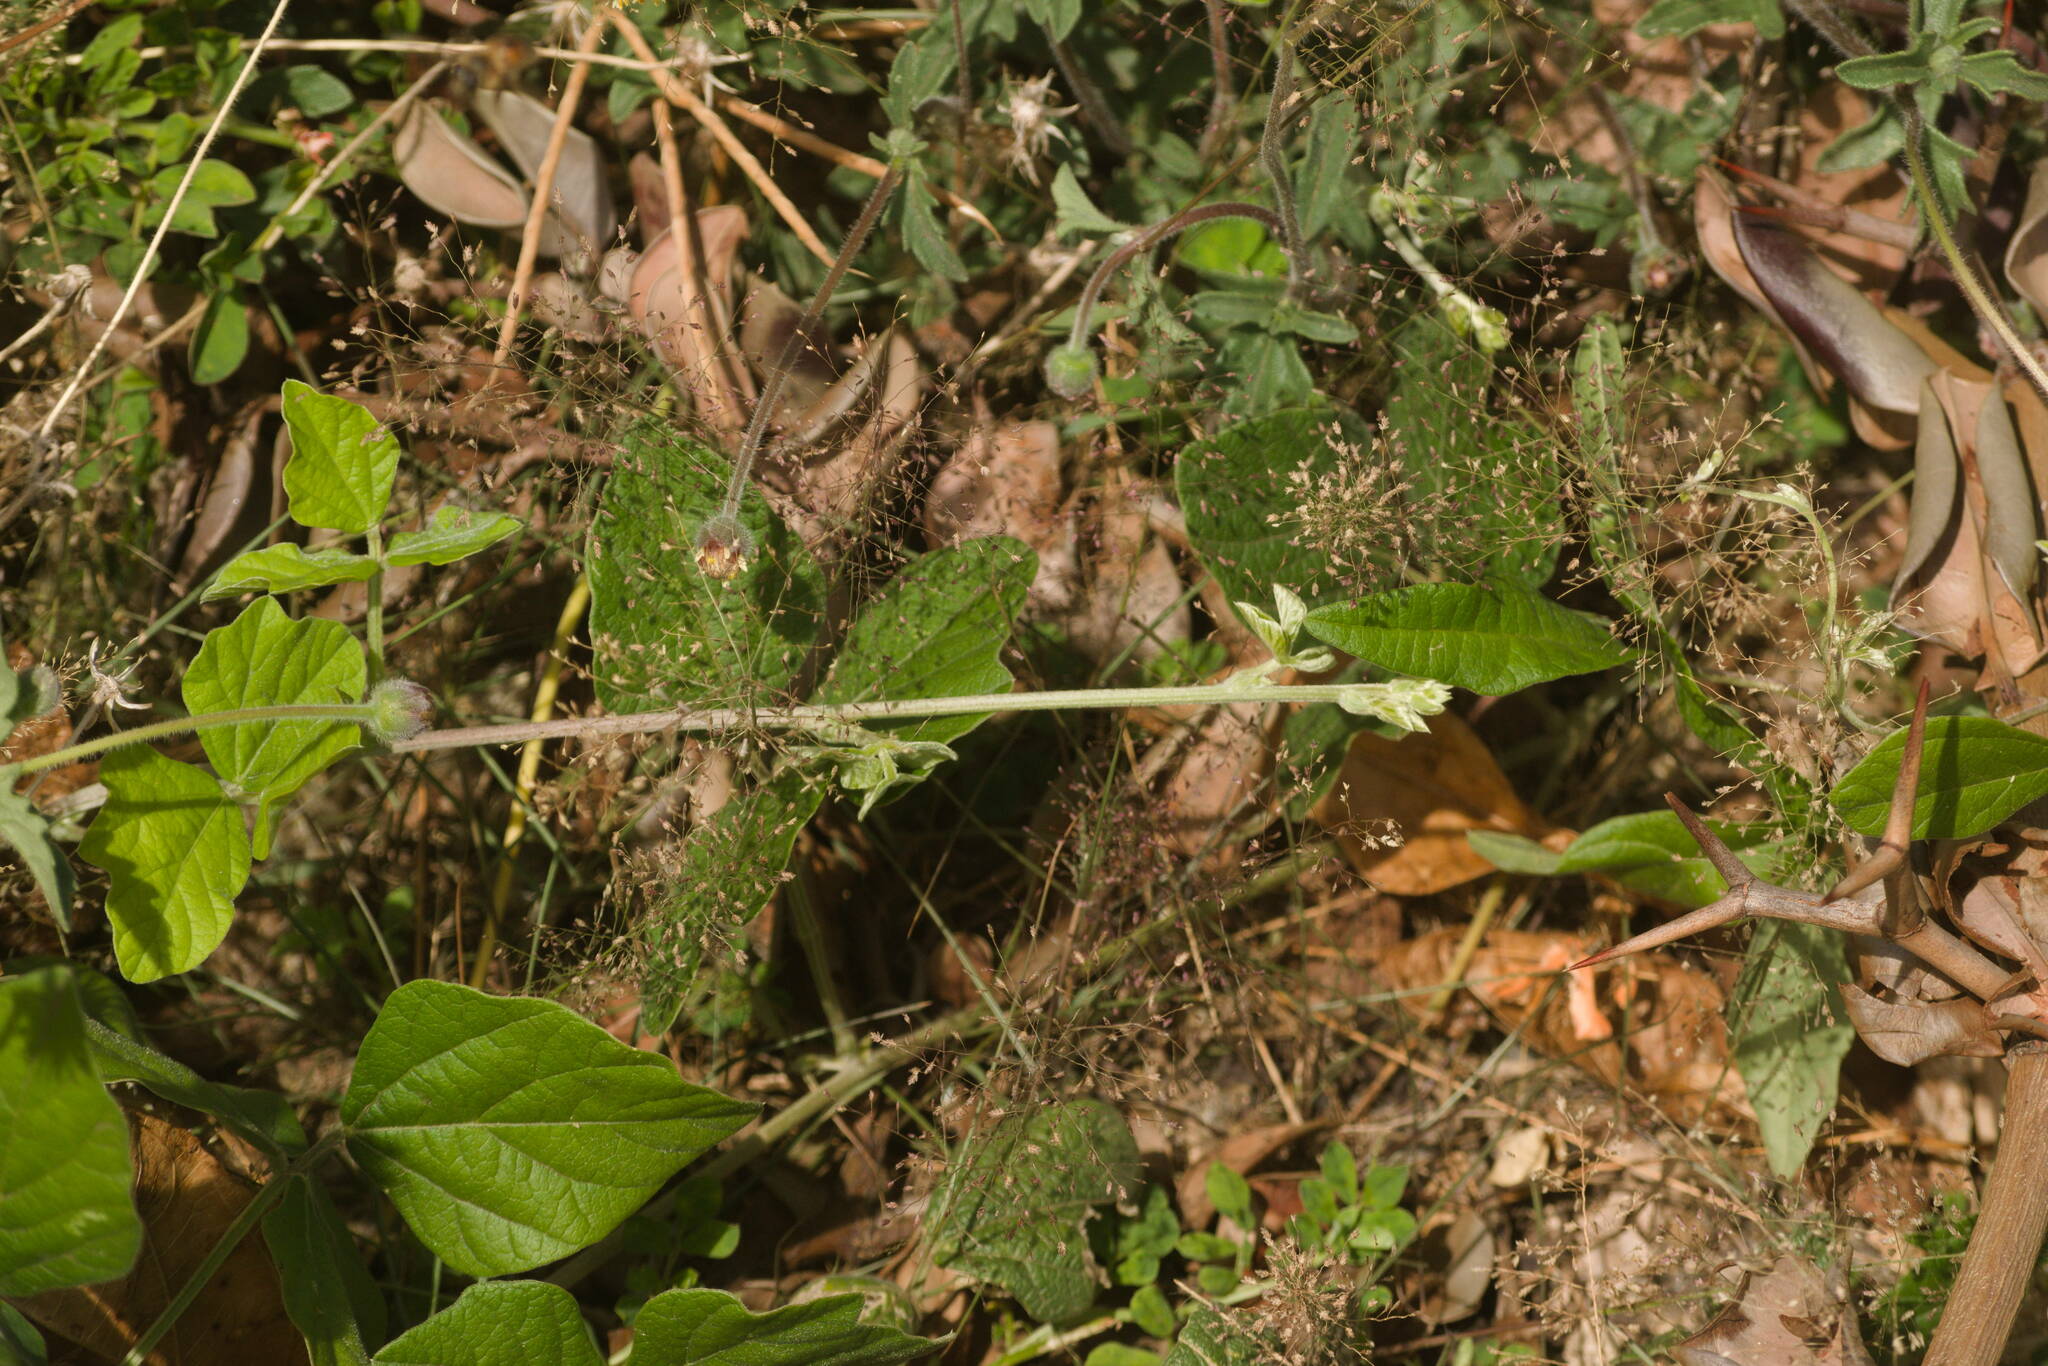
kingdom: Plantae
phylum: Tracheophyta
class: Liliopsida
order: Poales
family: Poaceae
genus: Eragrostis
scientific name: Eragrostis tenella
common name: Japanese lovegrass
